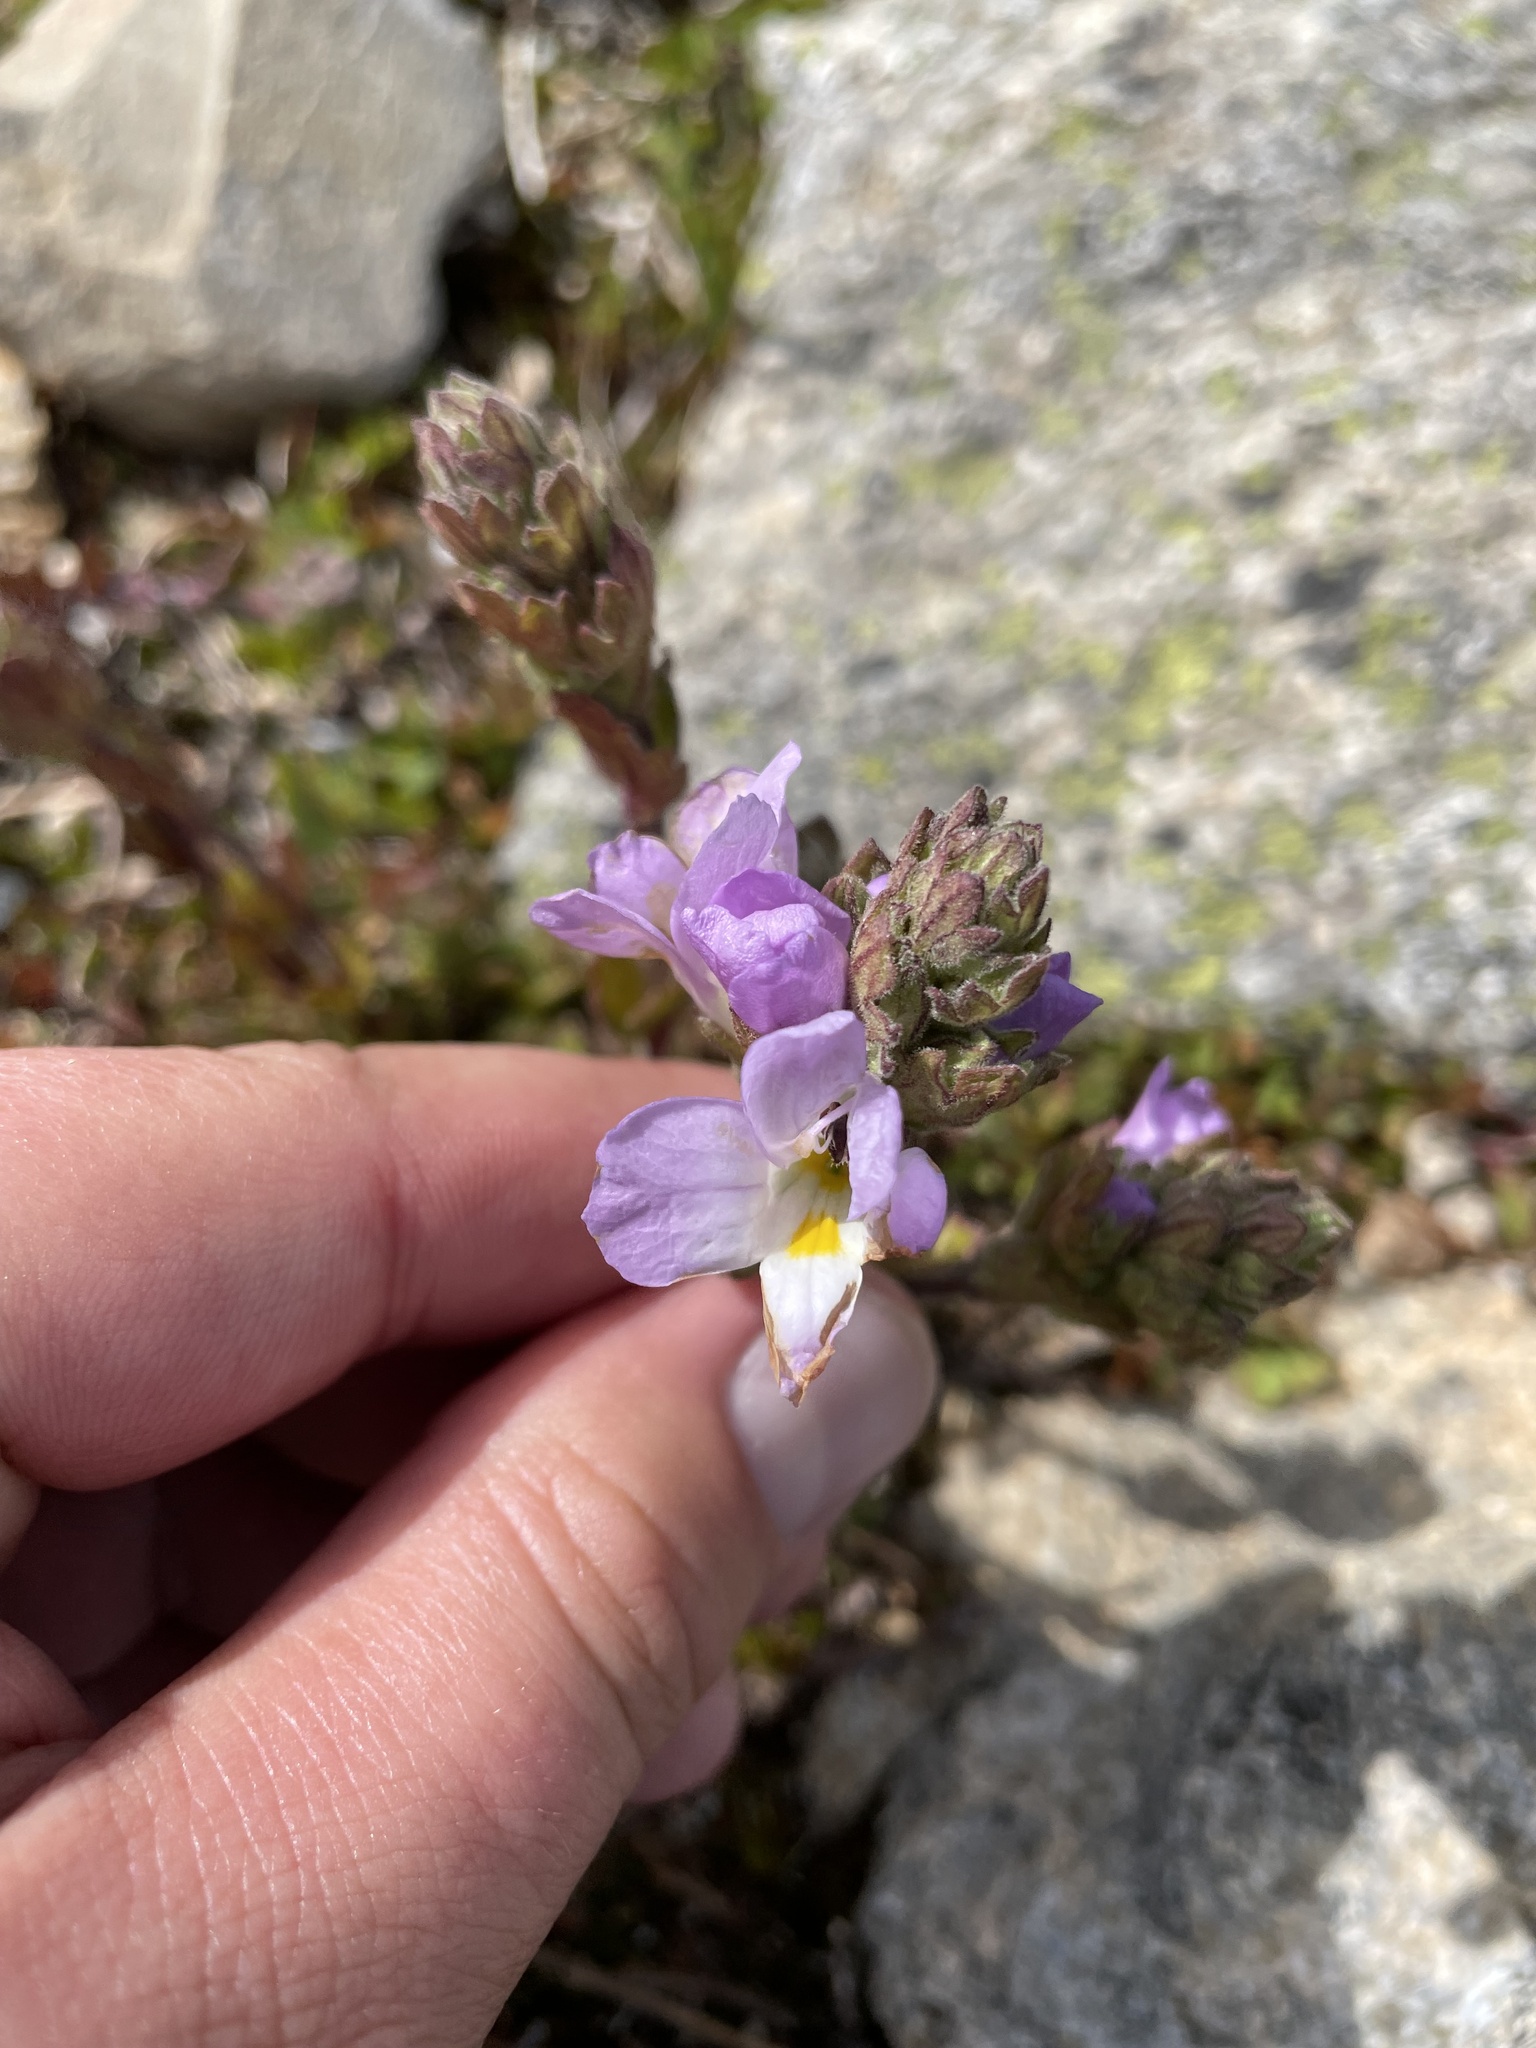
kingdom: Plantae
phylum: Tracheophyta
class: Magnoliopsida
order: Lamiales
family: Orobanchaceae
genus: Euphrasia
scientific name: Euphrasia collina
